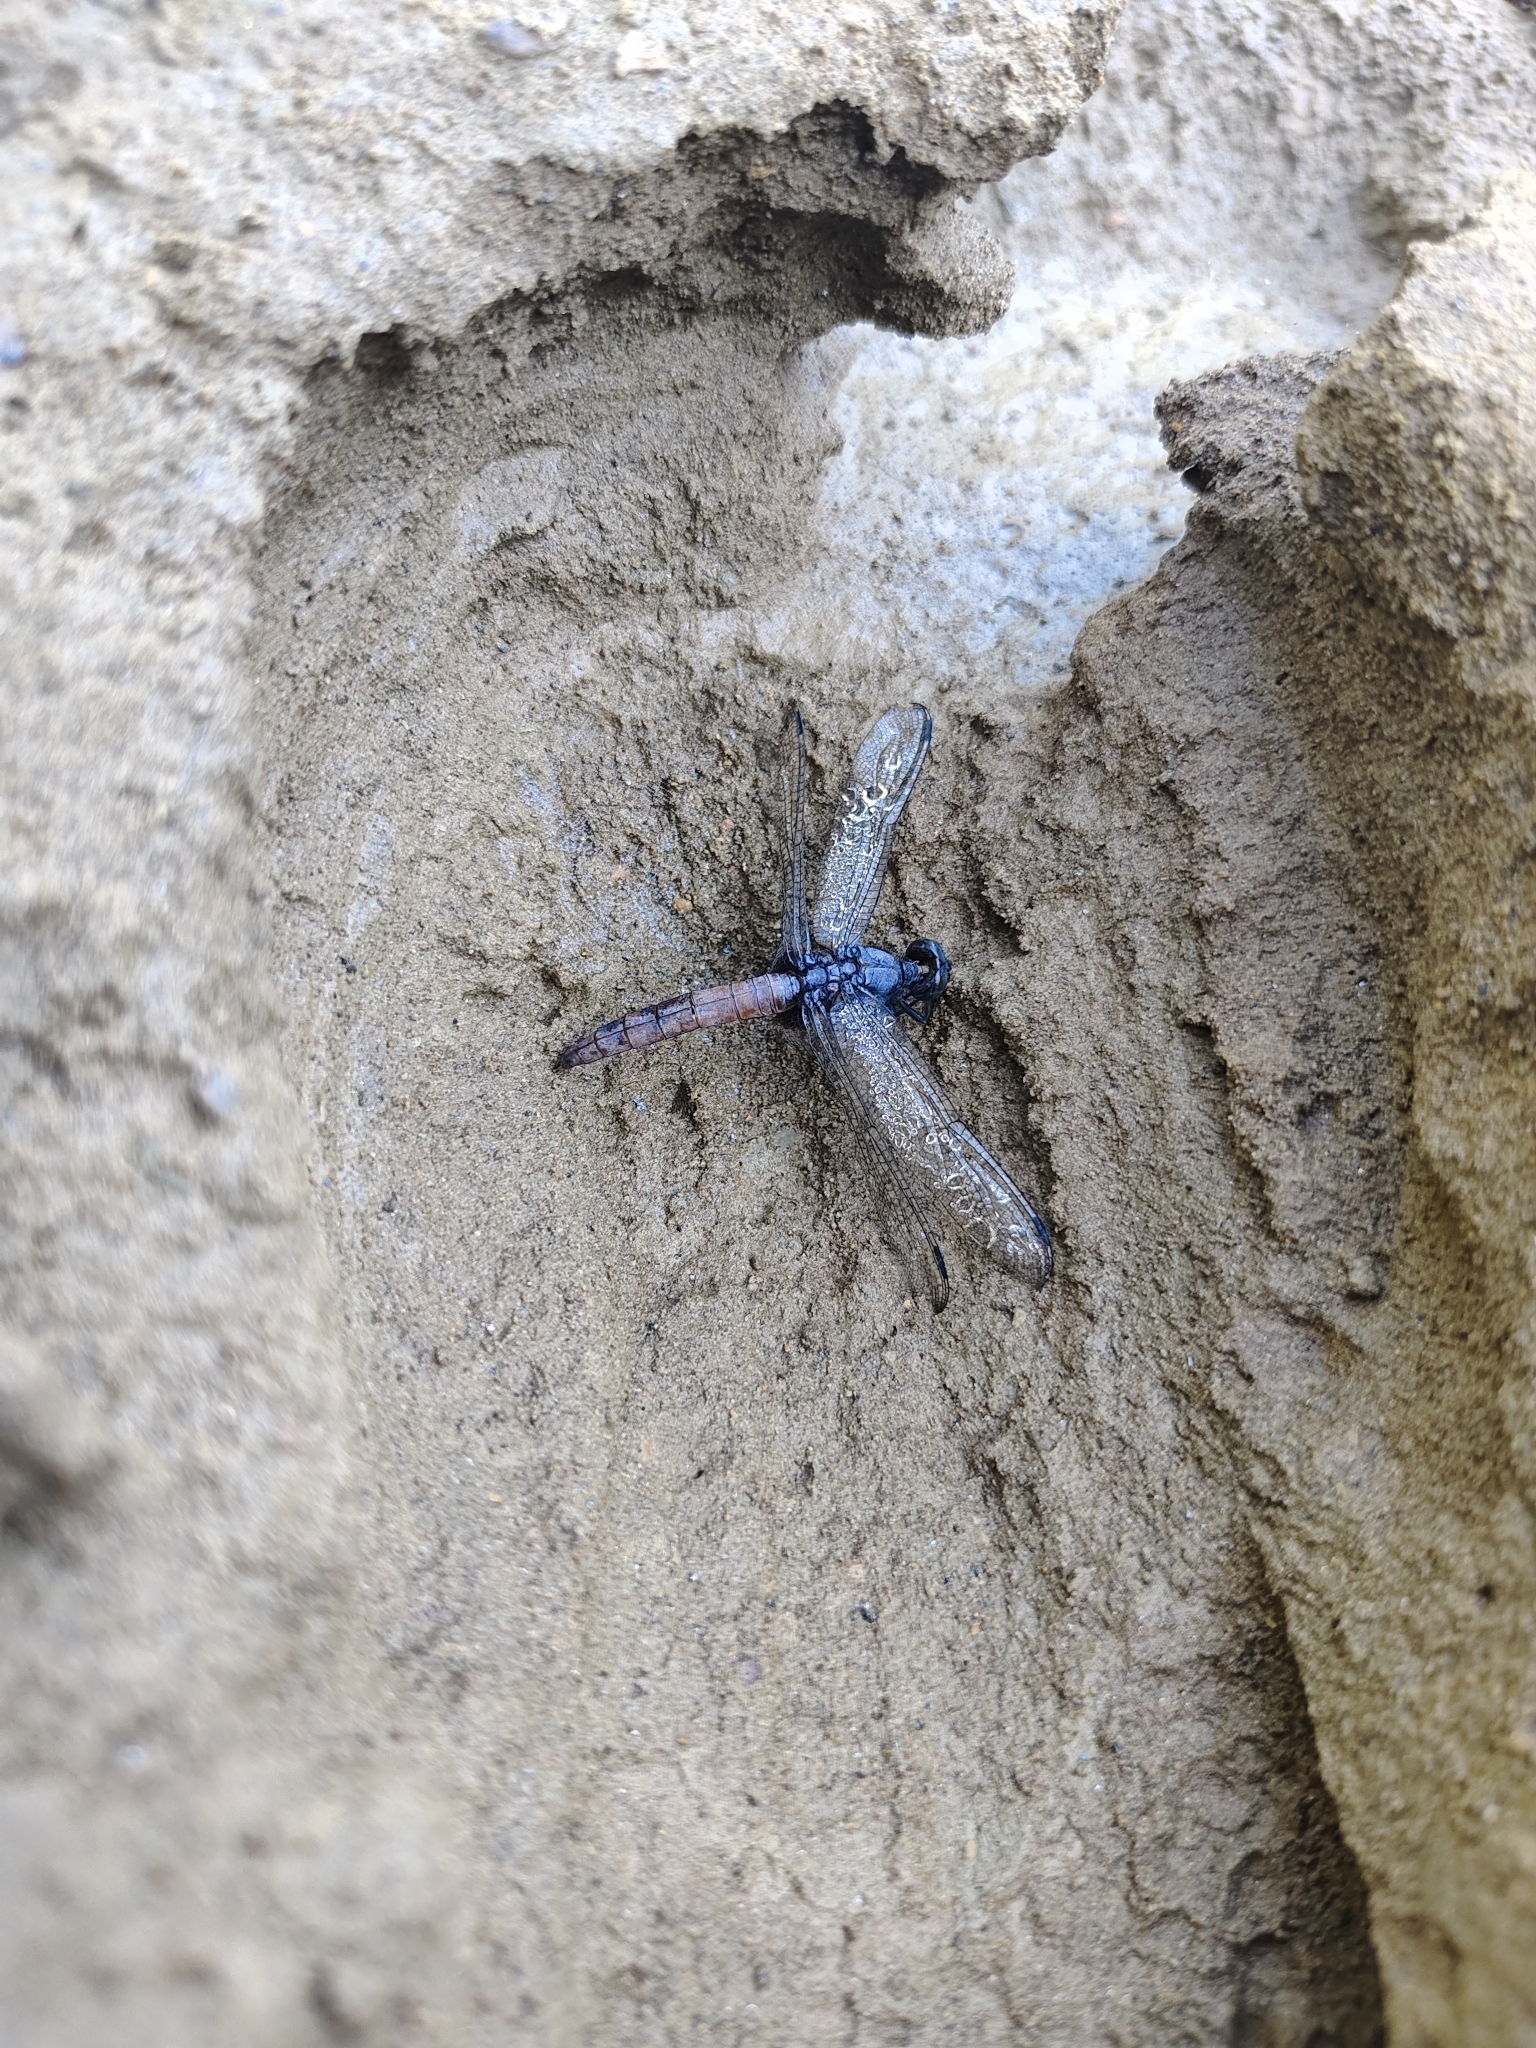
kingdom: Animalia
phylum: Arthropoda
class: Insecta
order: Odonata
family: Libellulidae
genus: Orthetrum
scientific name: Orthetrum pruinosum
